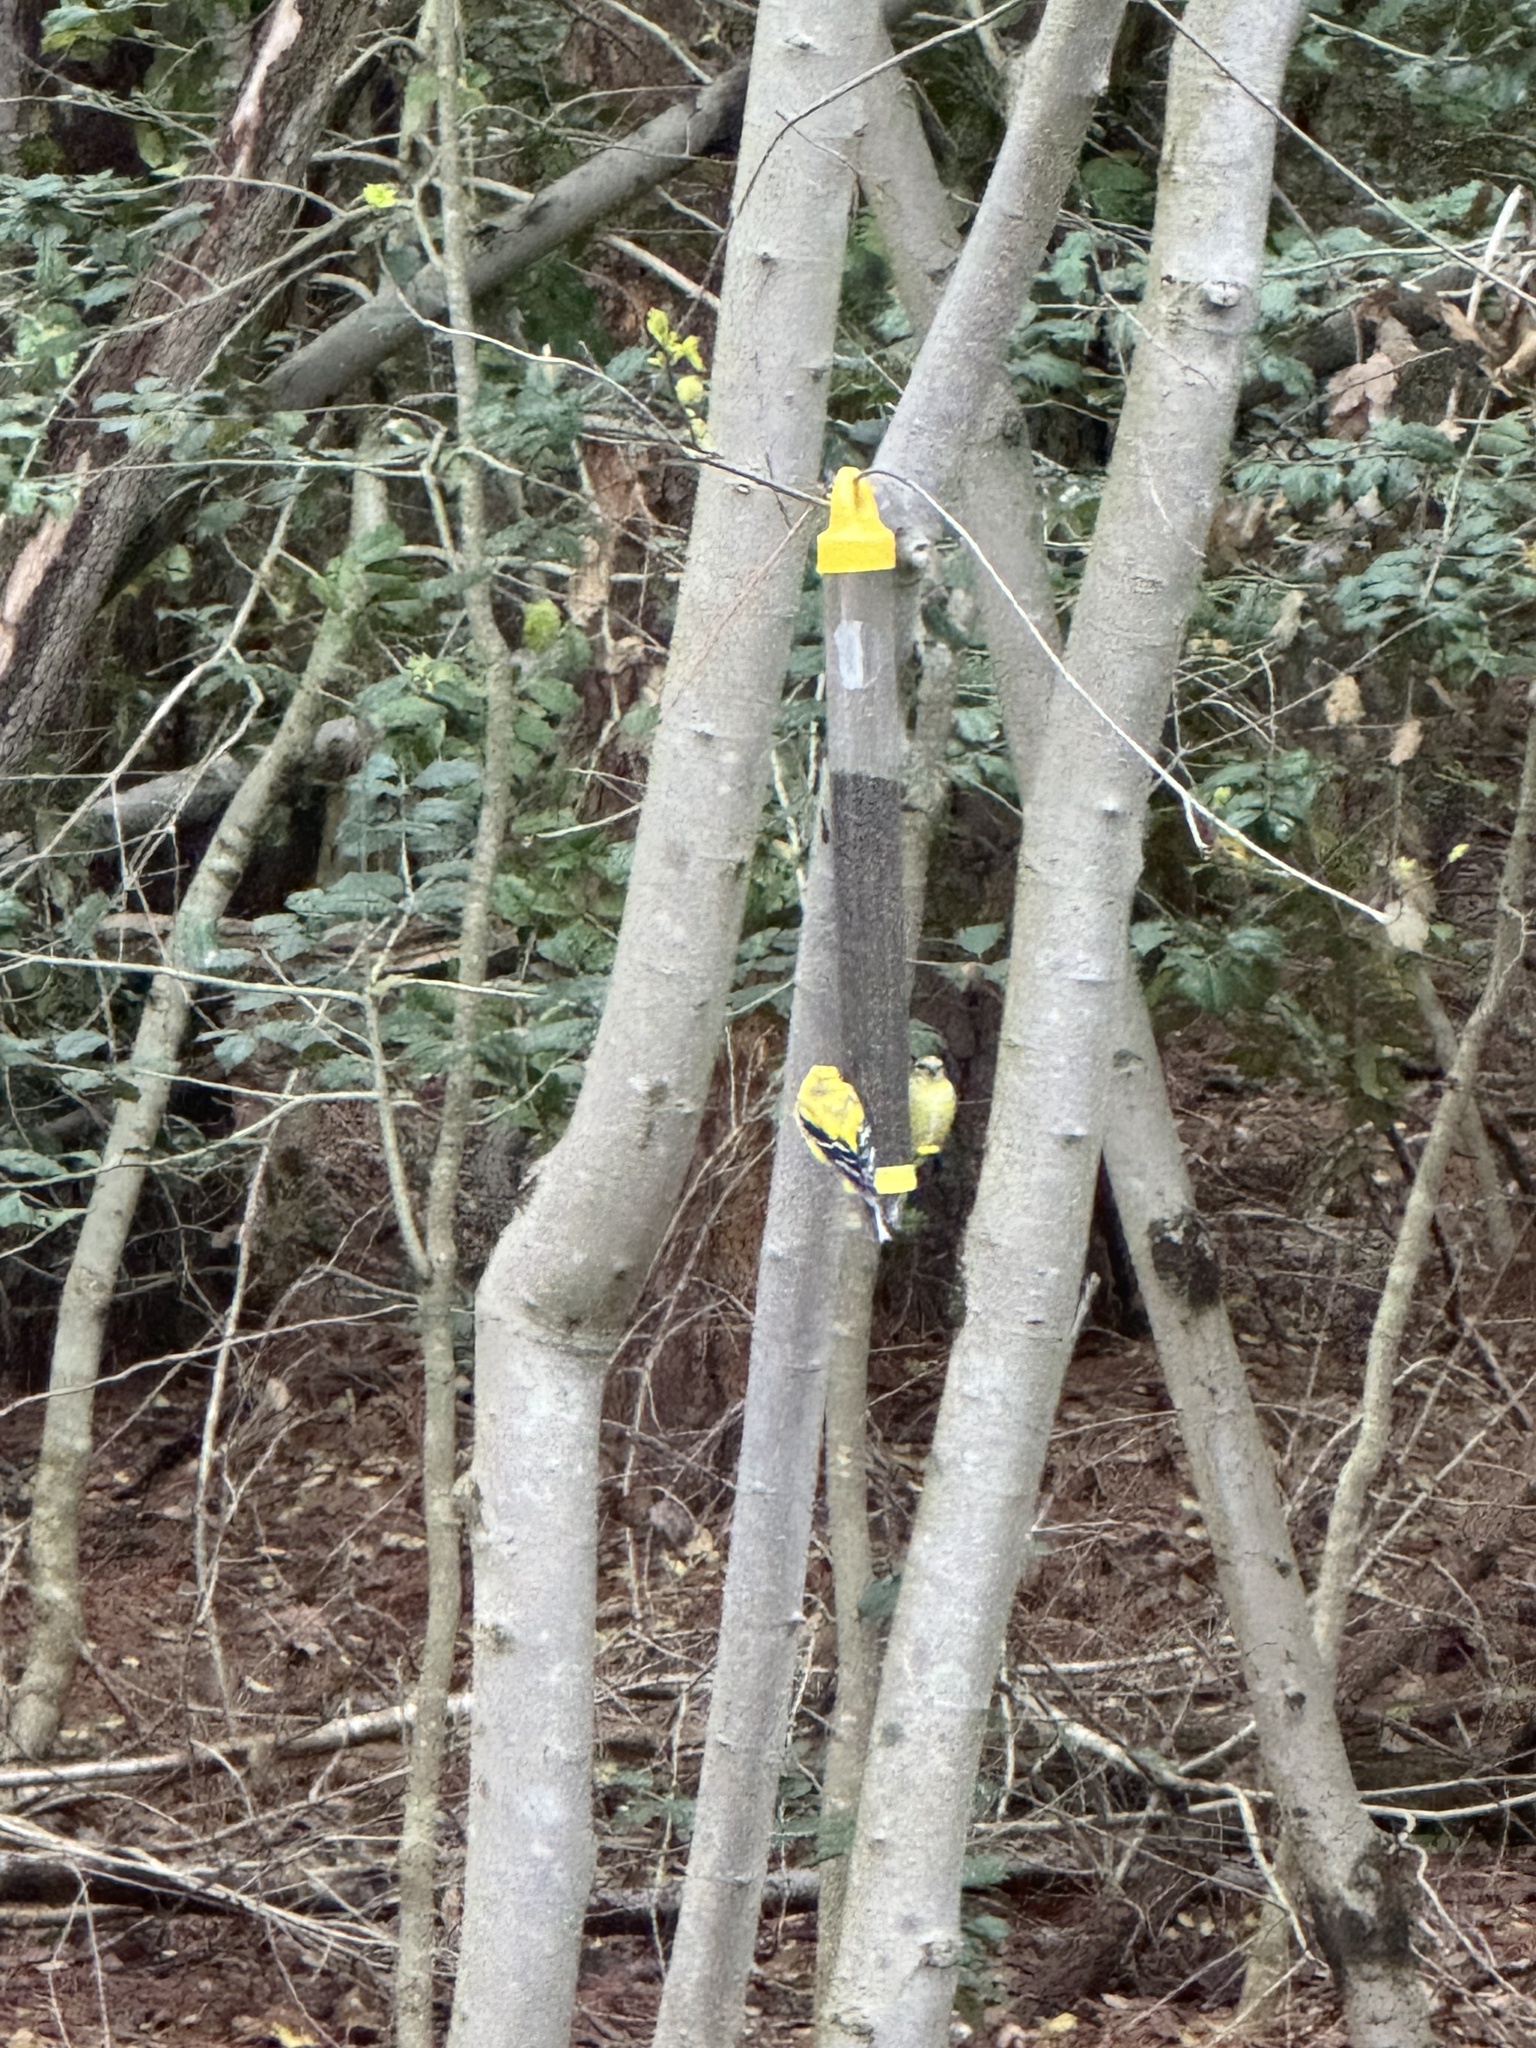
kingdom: Animalia
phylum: Chordata
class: Aves
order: Passeriformes
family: Fringillidae
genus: Spinus
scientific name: Spinus tristis
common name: American goldfinch
